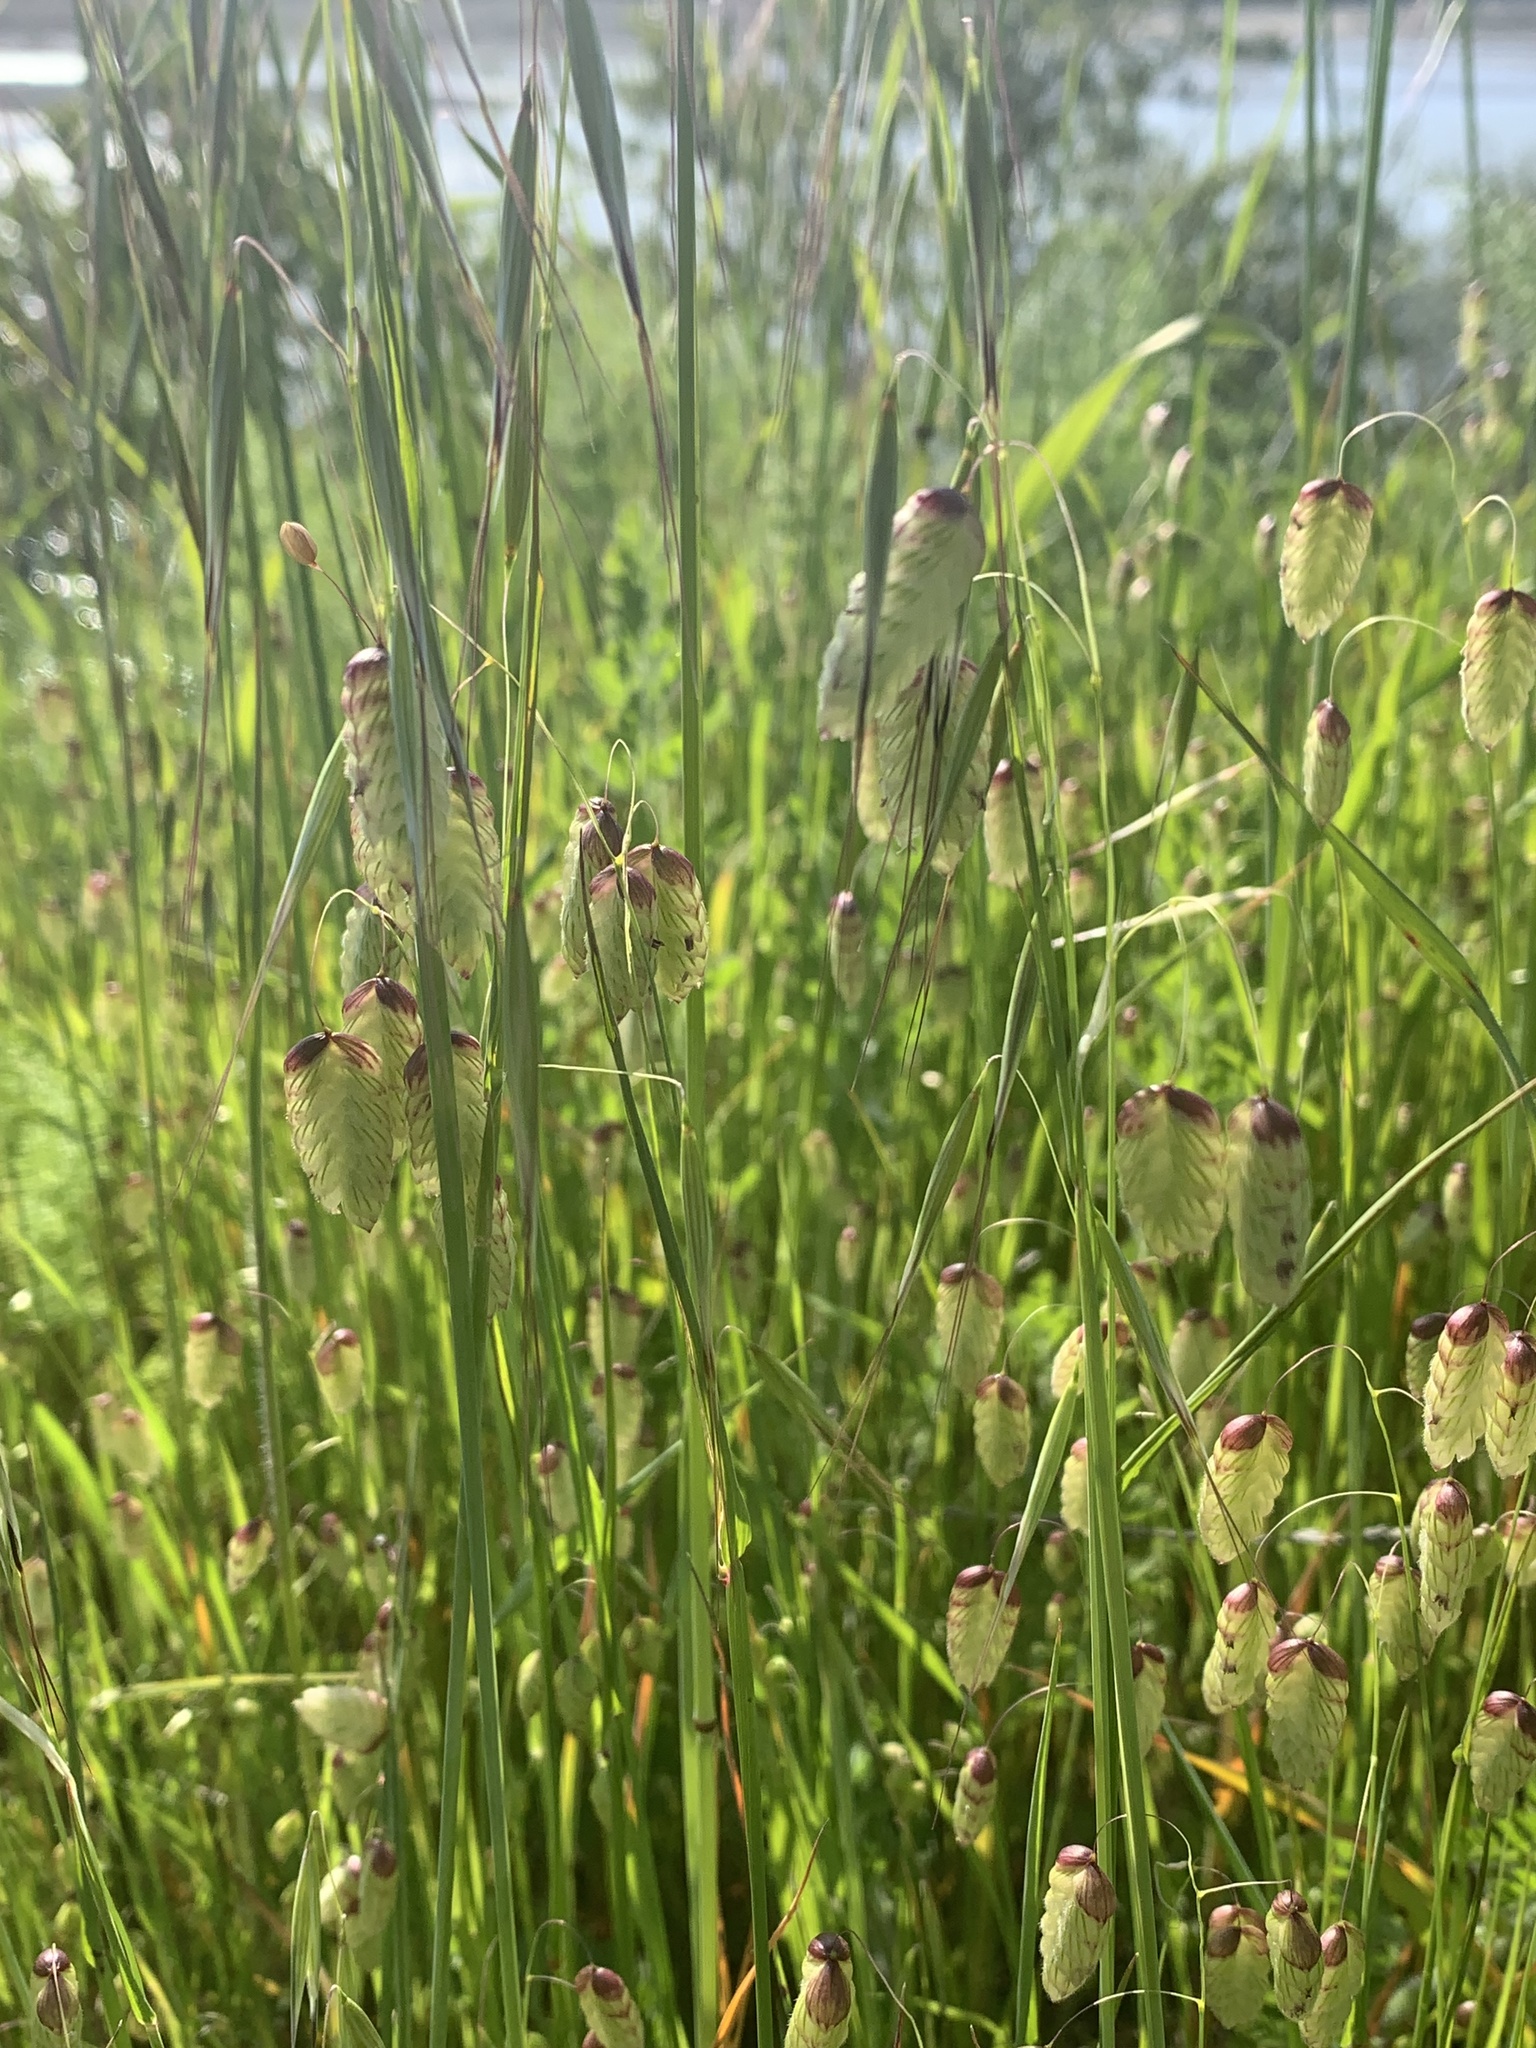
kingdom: Plantae
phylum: Tracheophyta
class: Liliopsida
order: Poales
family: Poaceae
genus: Briza
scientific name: Briza maxima
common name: Big quakinggrass
